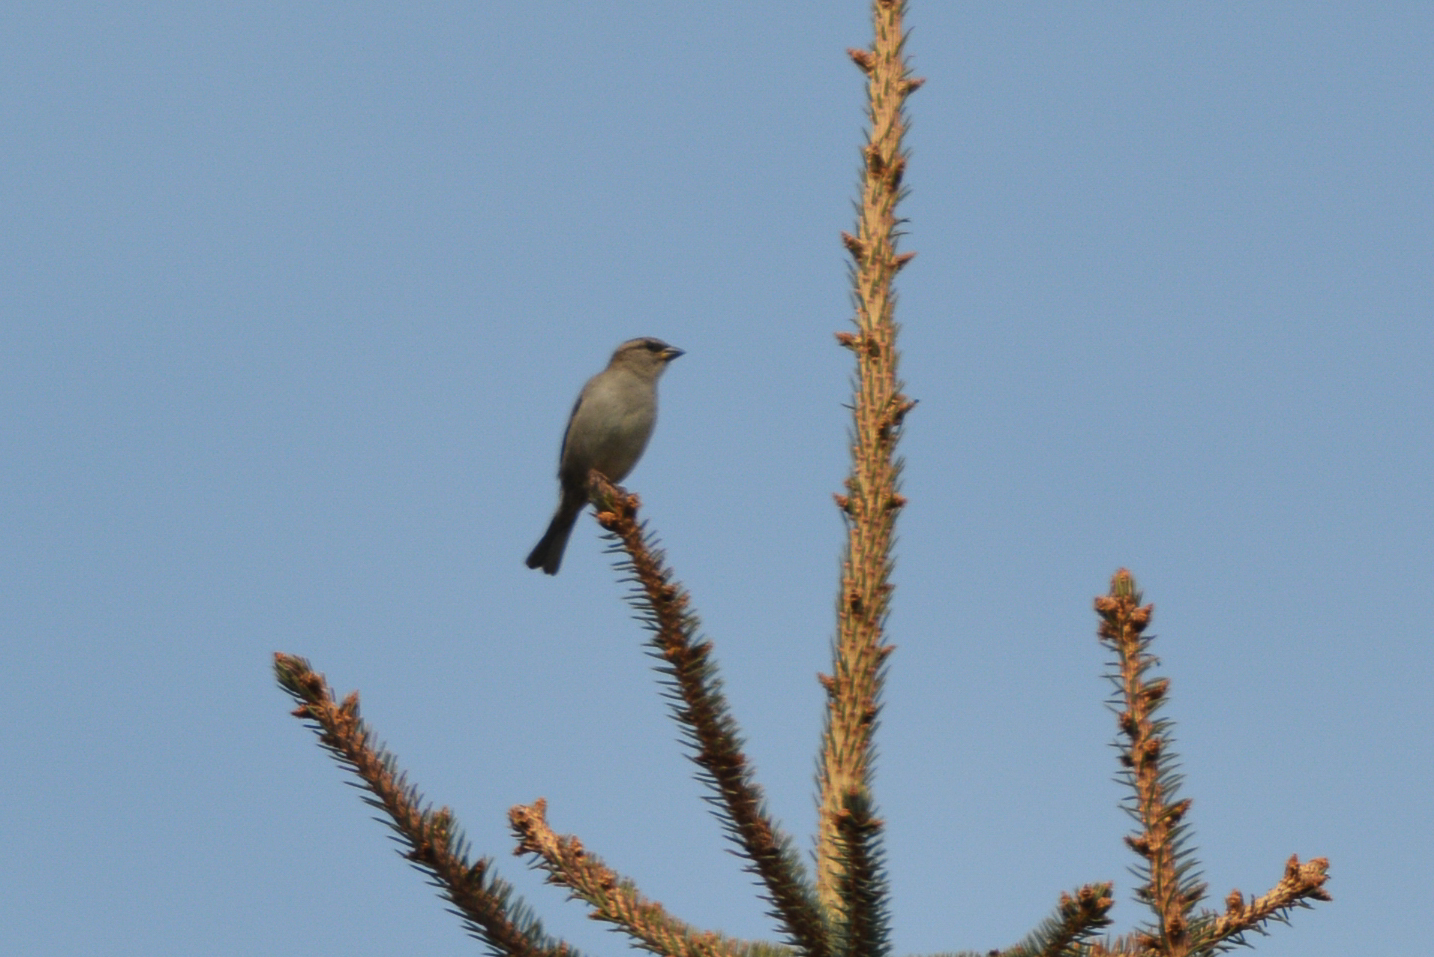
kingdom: Animalia
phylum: Chordata
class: Aves
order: Passeriformes
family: Passeridae
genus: Passer
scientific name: Passer domesticus
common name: House sparrow
